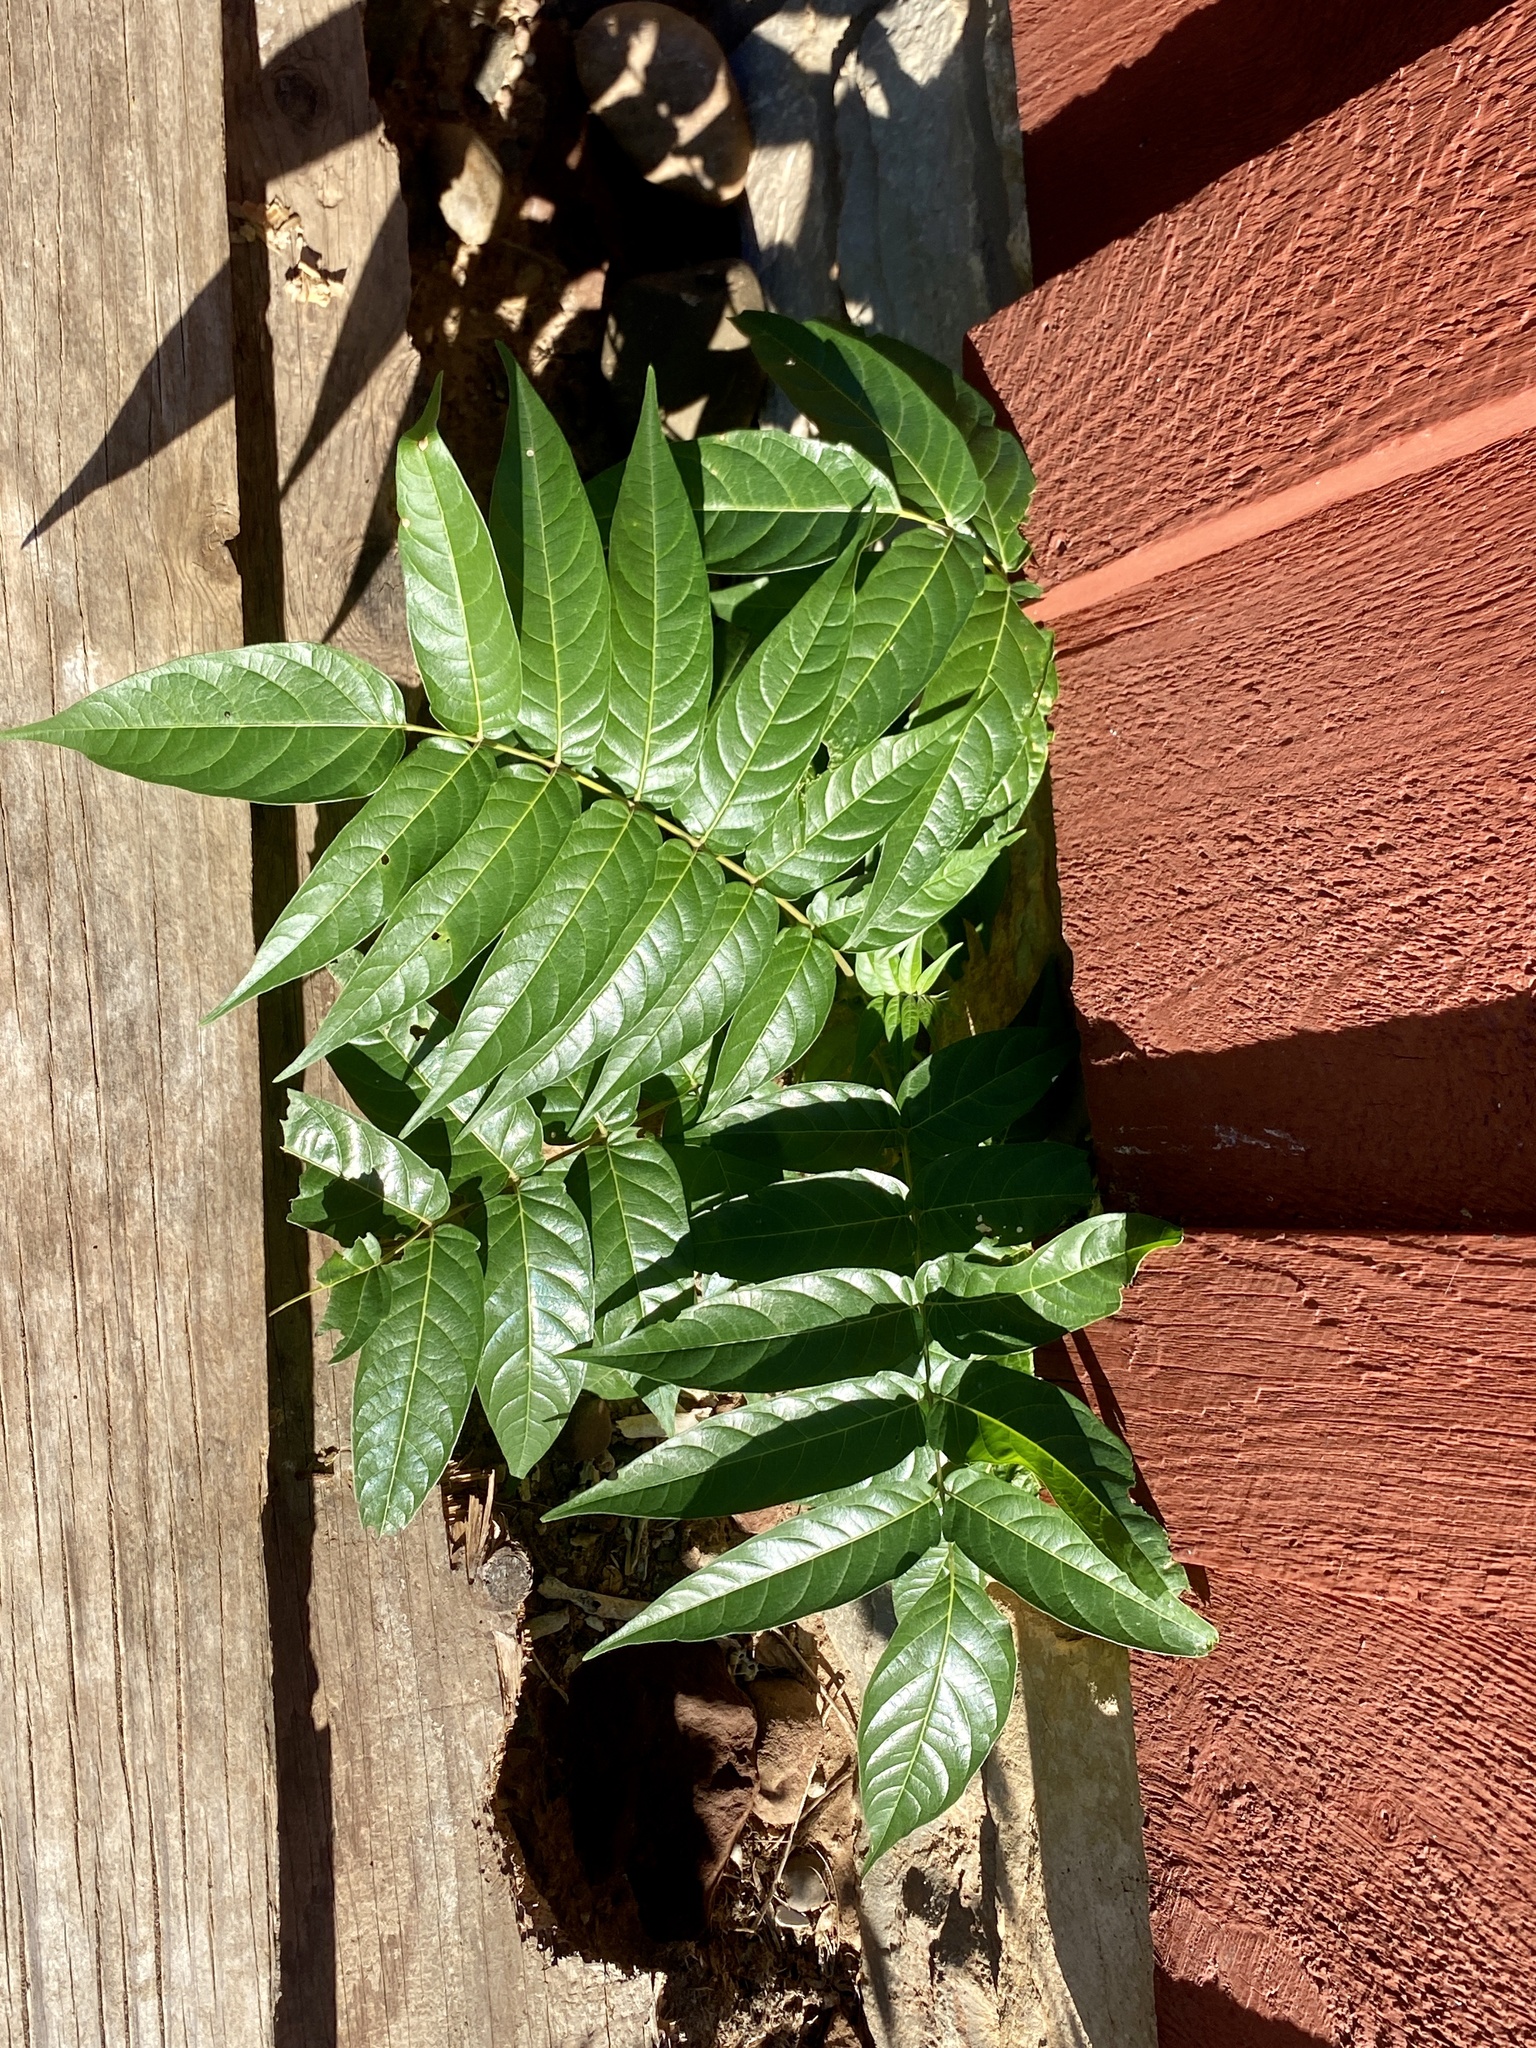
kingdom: Plantae
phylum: Tracheophyta
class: Magnoliopsida
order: Sapindales
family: Simaroubaceae
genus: Ailanthus
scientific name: Ailanthus altissima
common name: Tree-of-heaven
